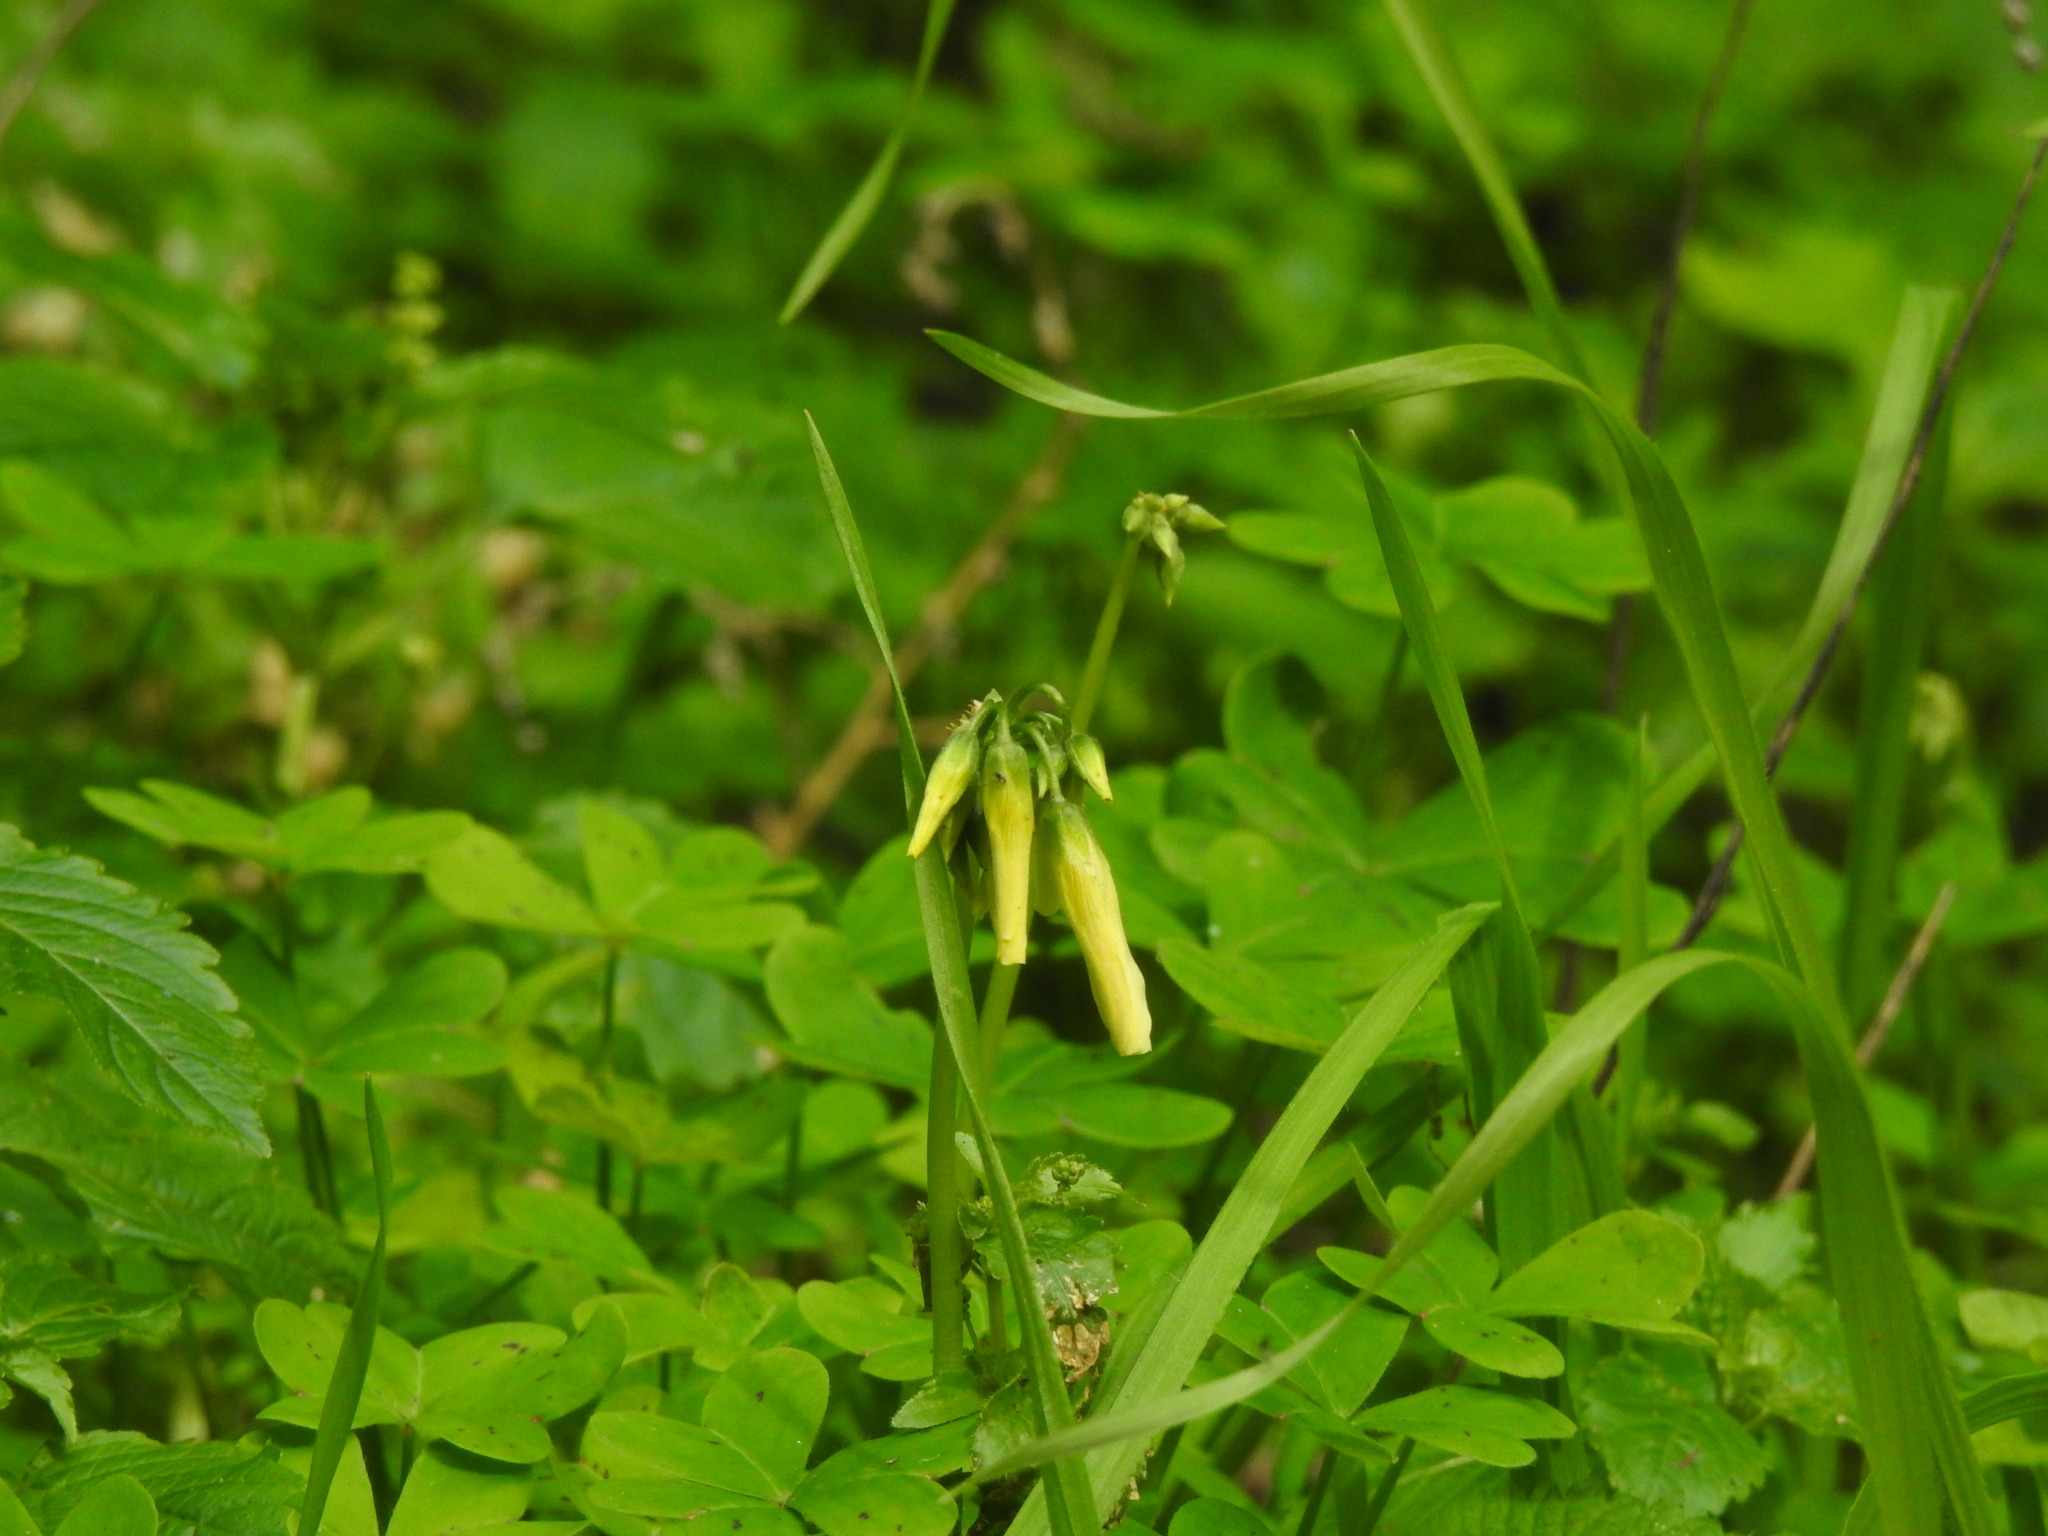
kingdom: Plantae
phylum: Tracheophyta
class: Magnoliopsida
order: Oxalidales
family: Oxalidaceae
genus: Oxalis
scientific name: Oxalis pes-caprae
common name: Bermuda-buttercup
